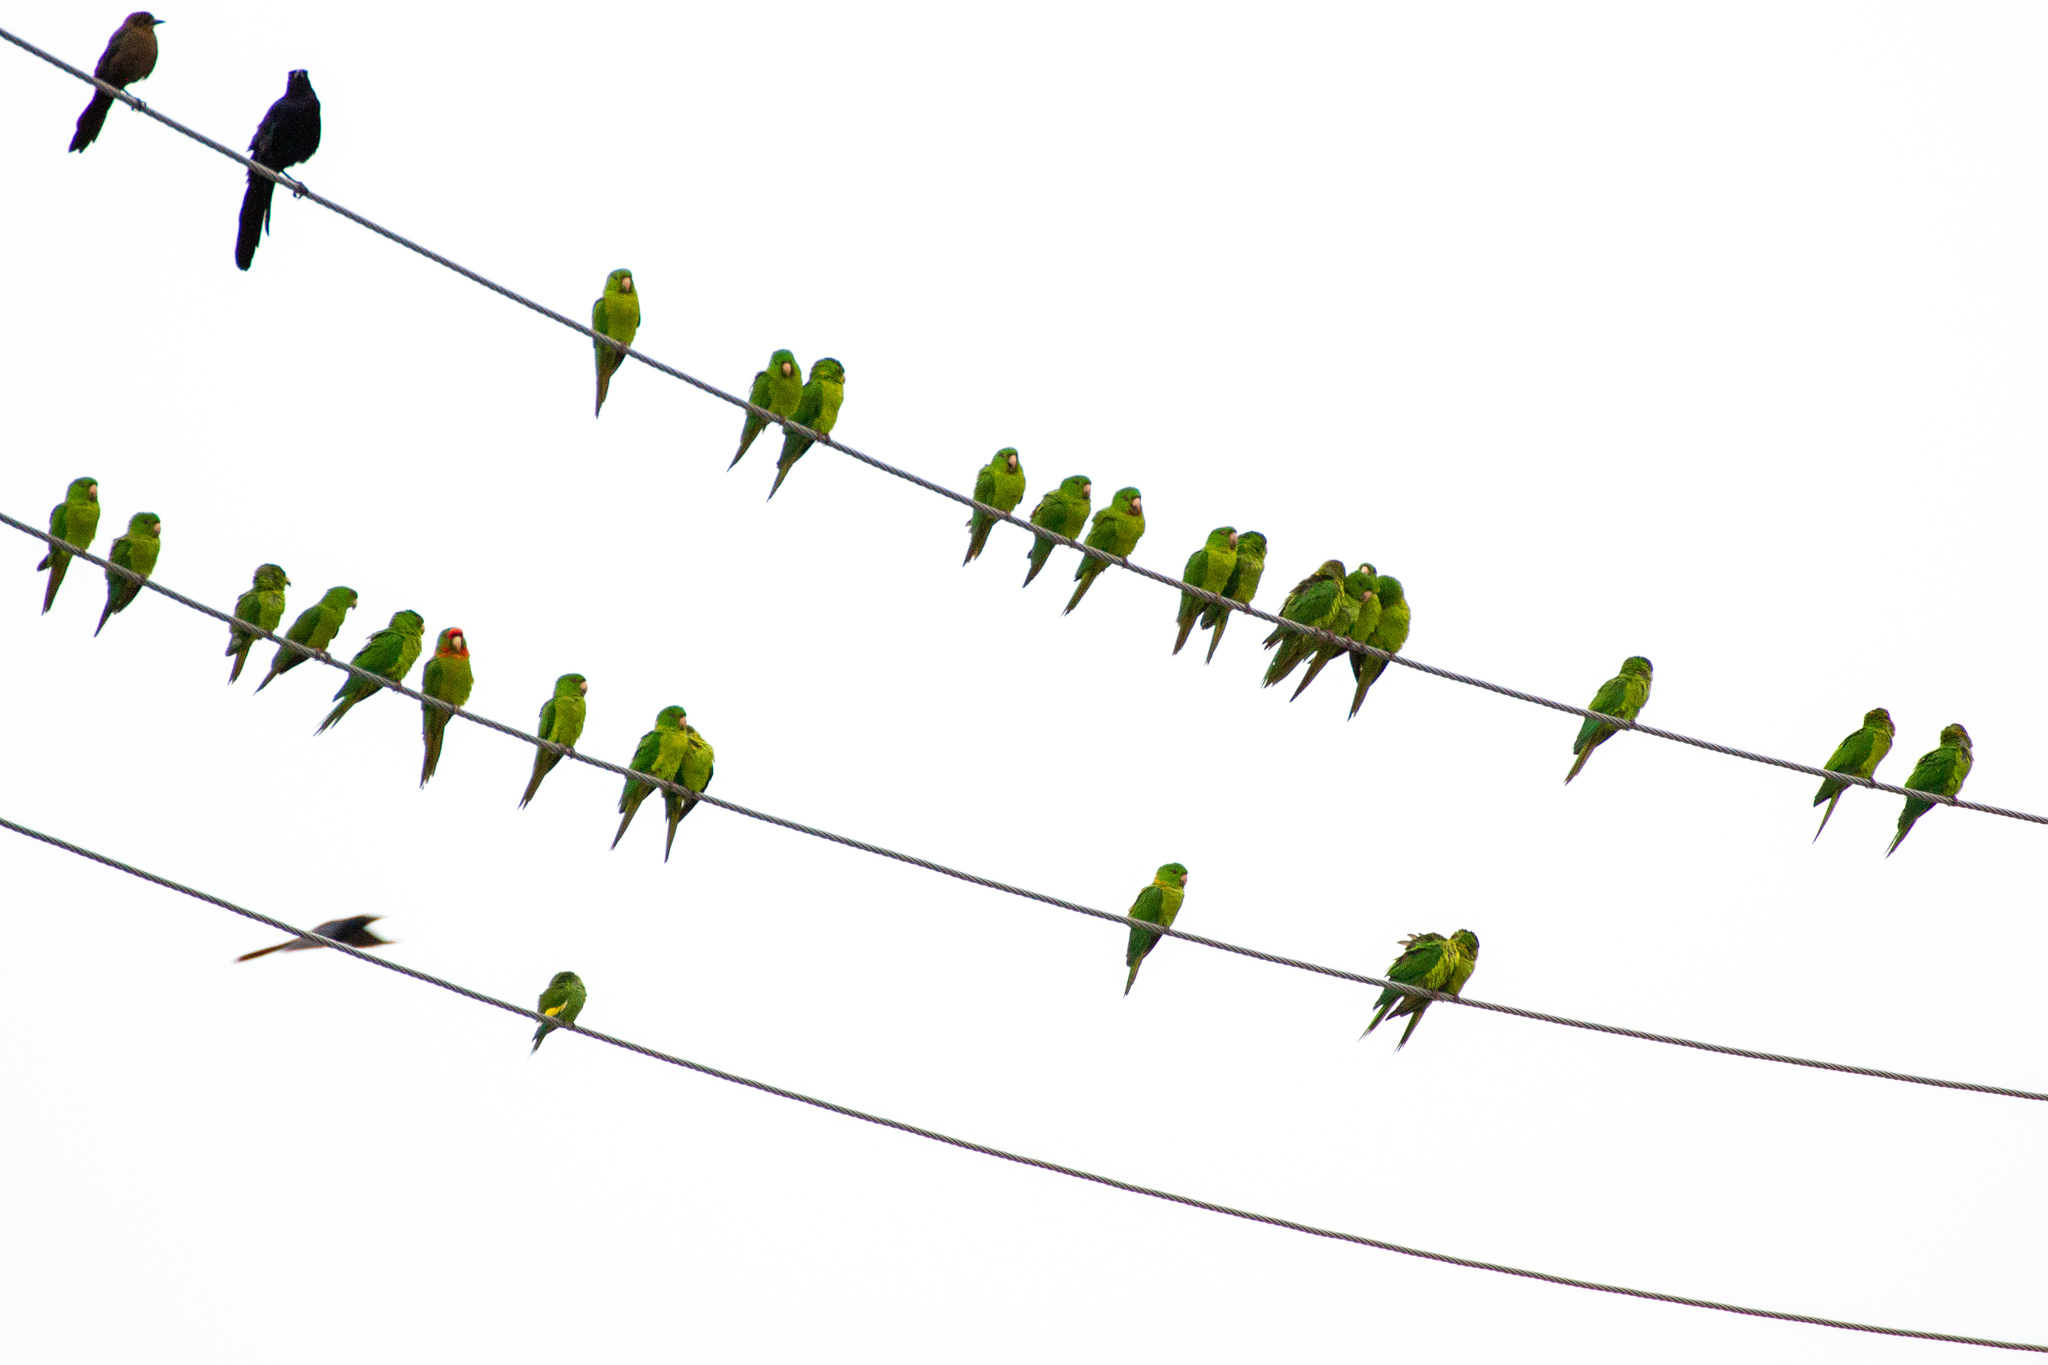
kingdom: Animalia
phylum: Chordata
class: Aves
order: Psittaciformes
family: Psittacidae
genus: Aratinga
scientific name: Aratinga holochlora
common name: Green parakeet
